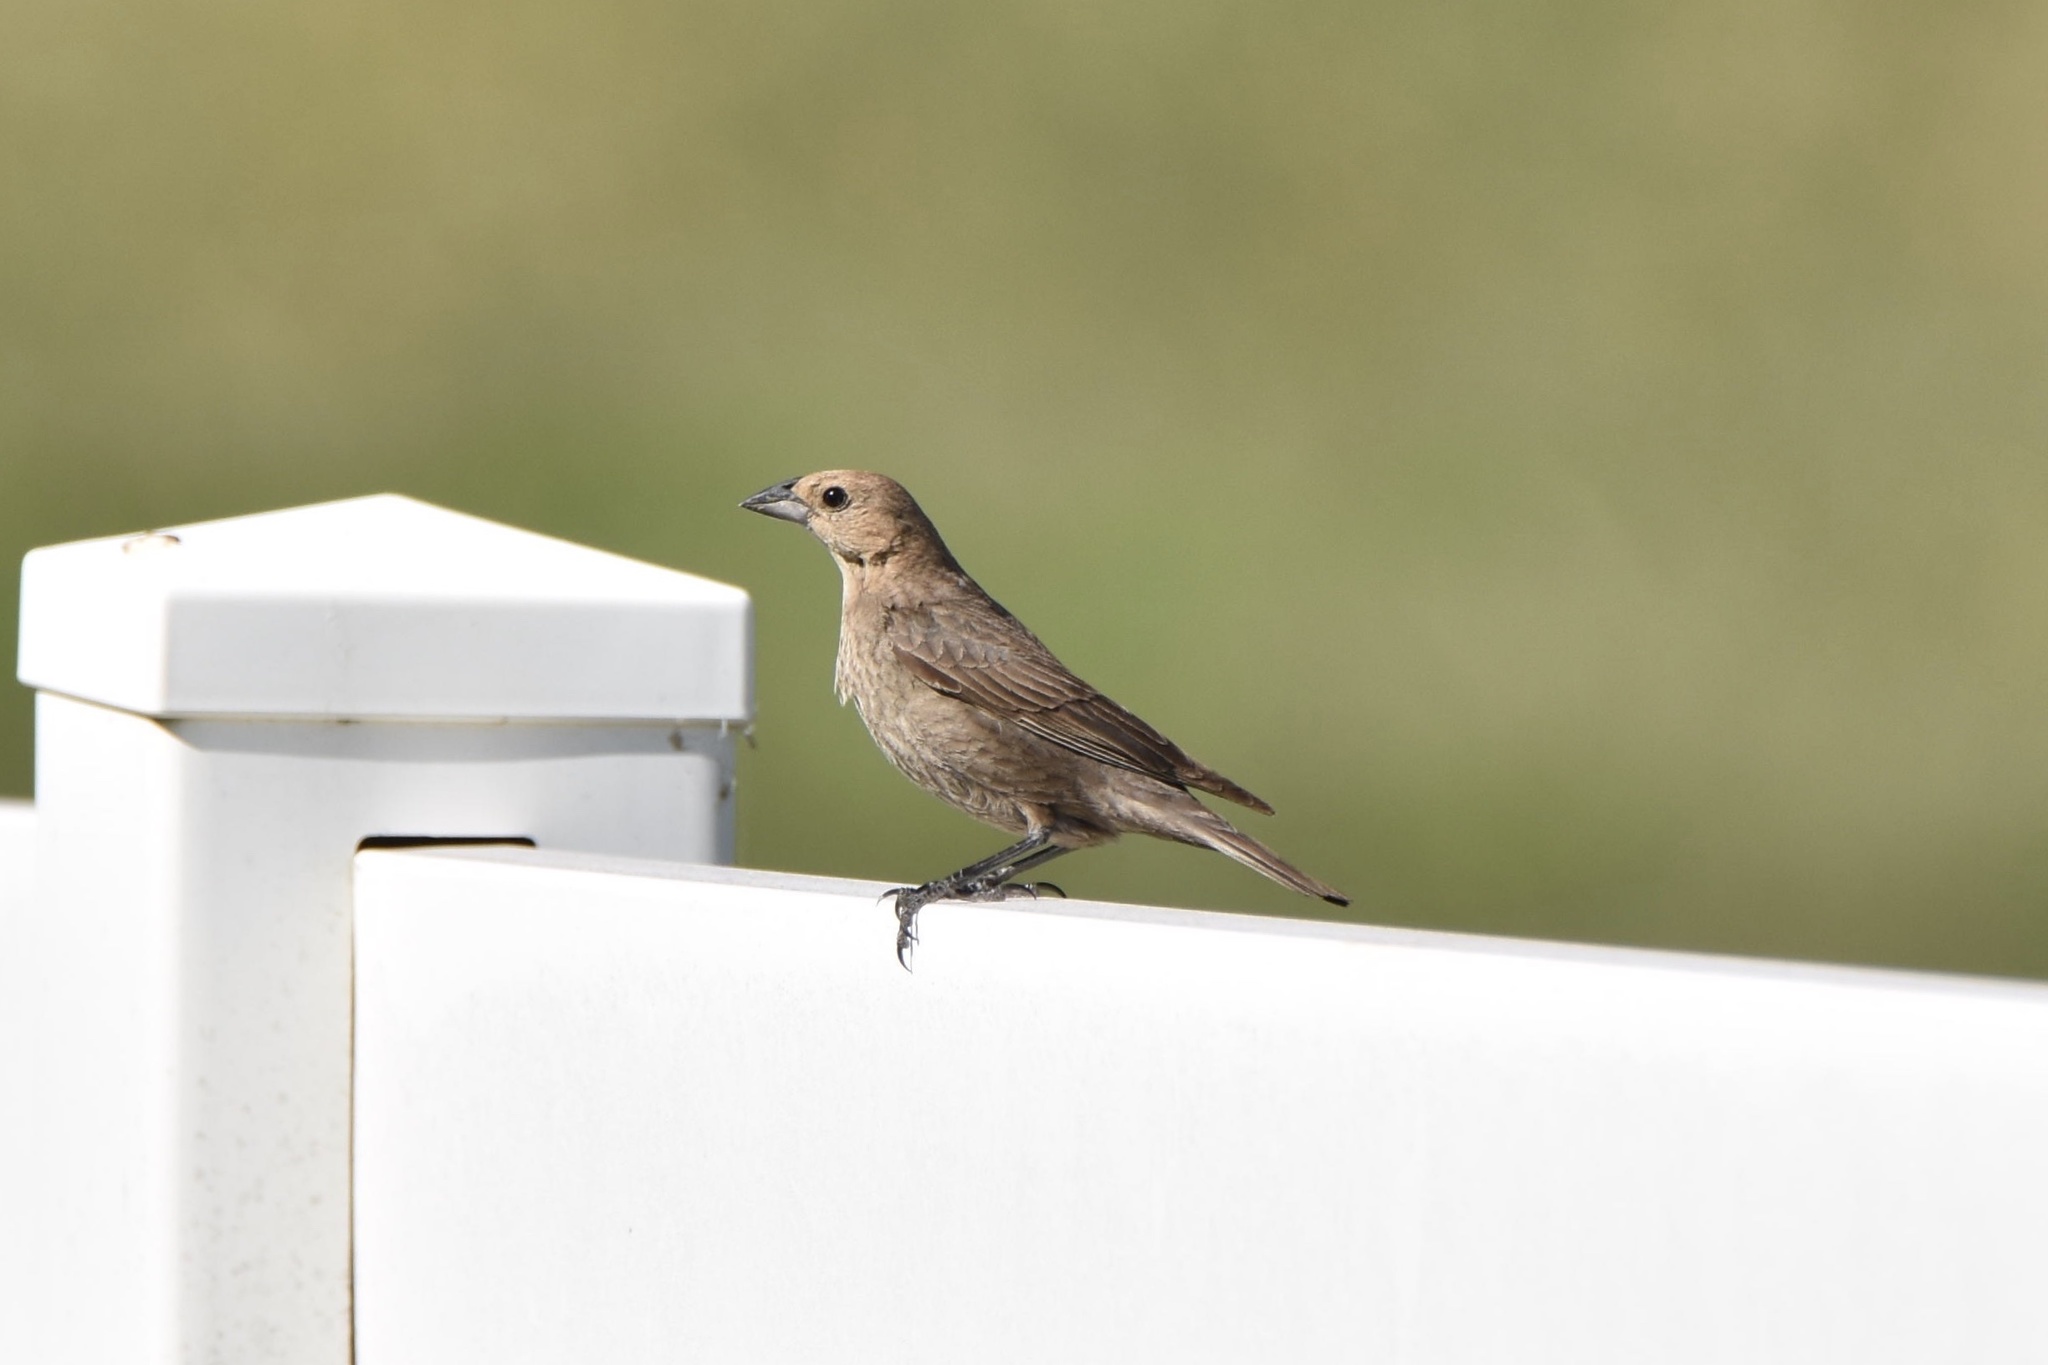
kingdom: Animalia
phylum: Chordata
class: Aves
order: Passeriformes
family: Icteridae
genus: Molothrus
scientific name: Molothrus ater
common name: Brown-headed cowbird
